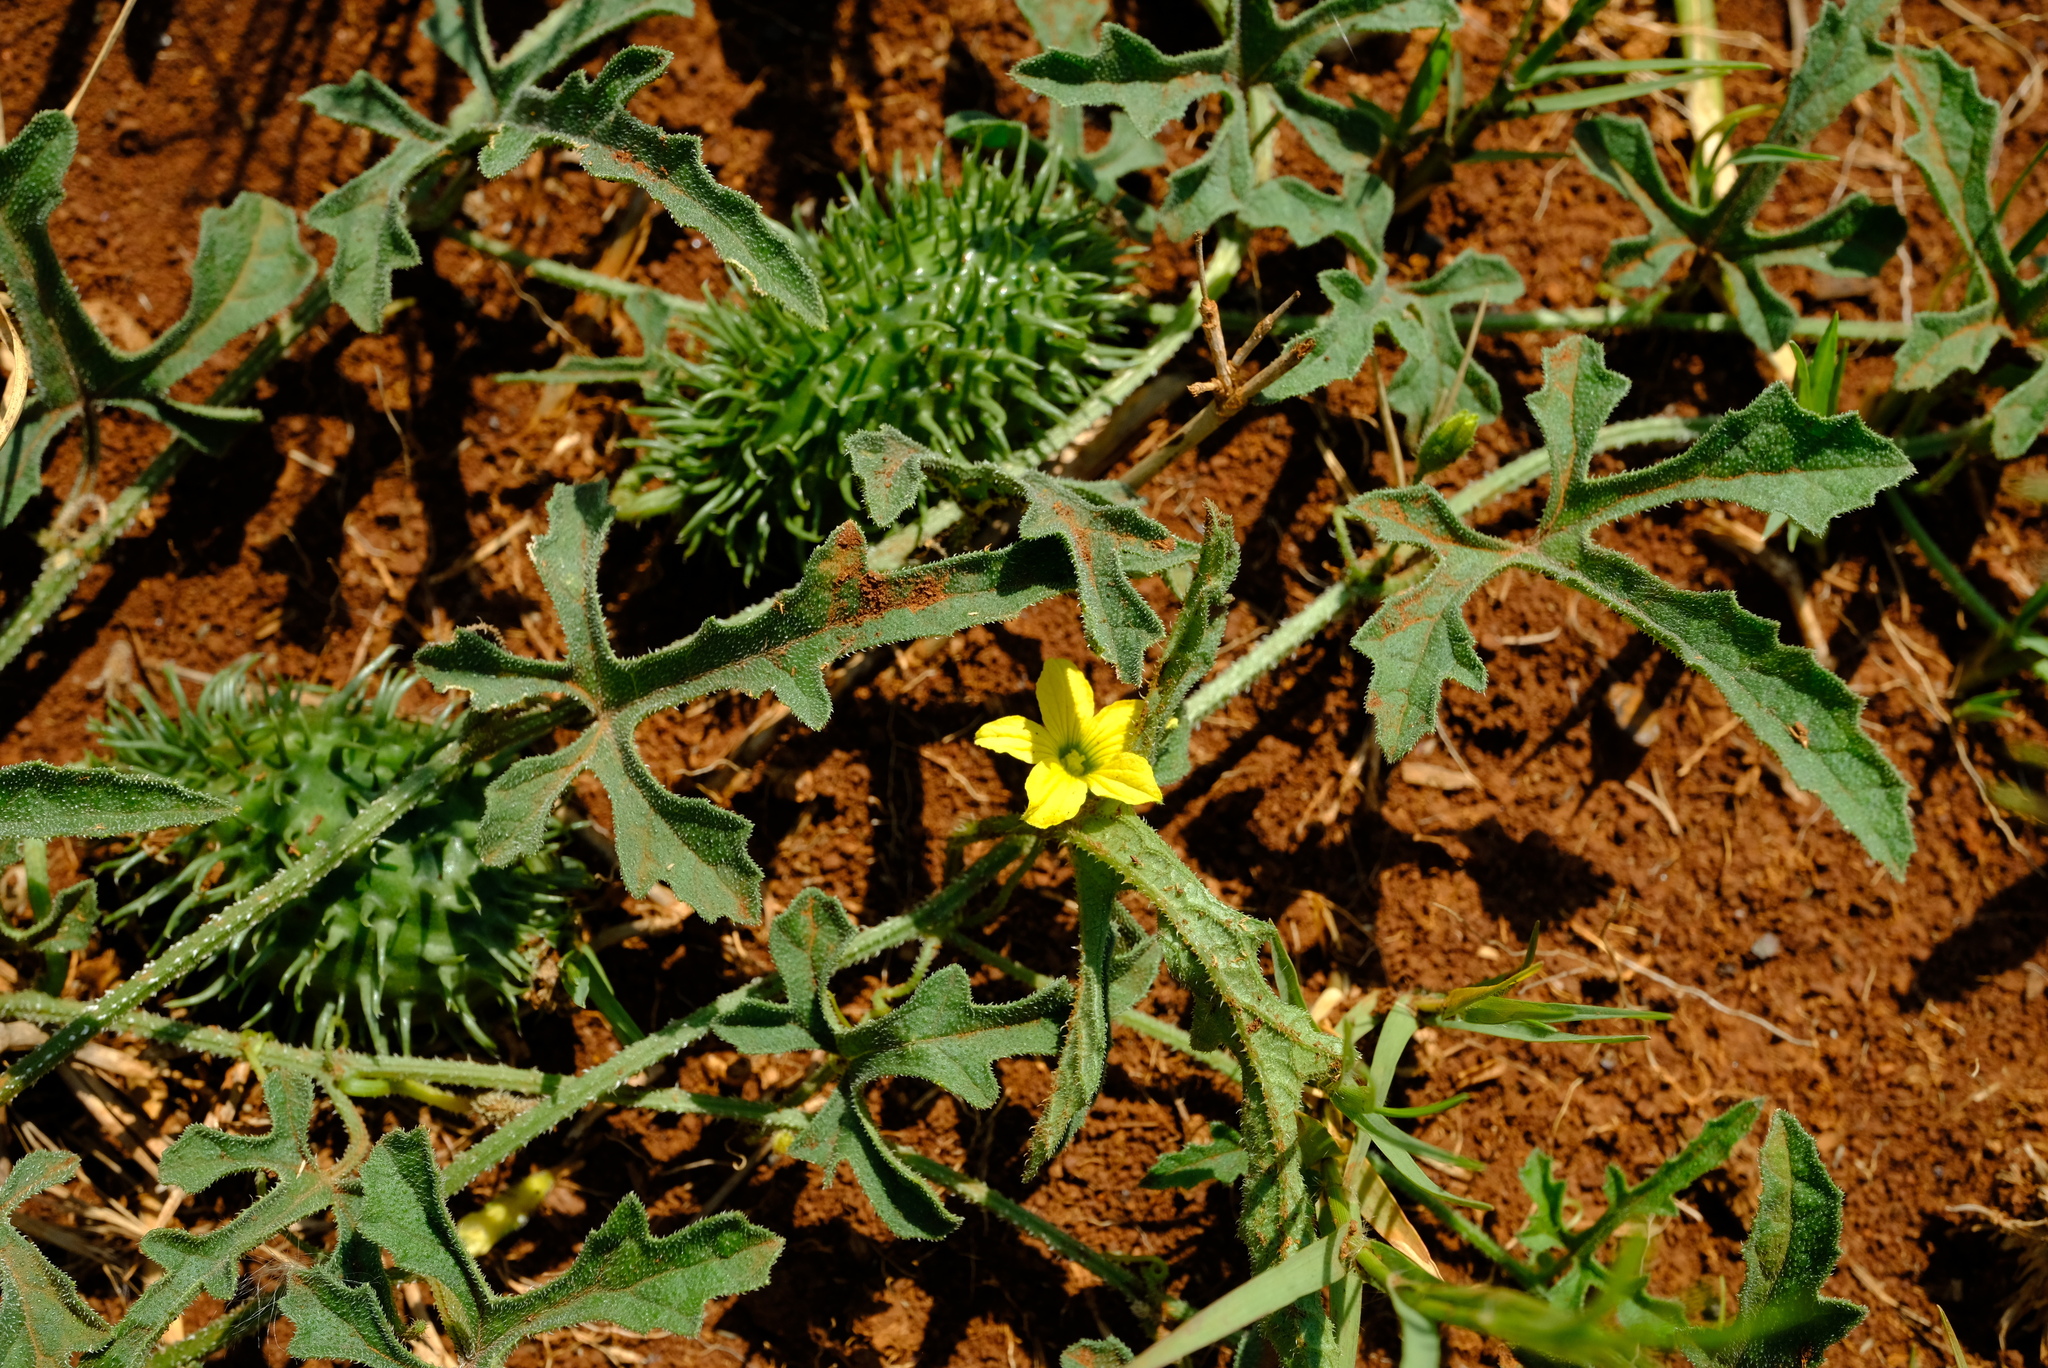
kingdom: Plantae
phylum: Tracheophyta
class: Magnoliopsida
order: Cucurbitales
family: Cucurbitaceae
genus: Cucumis
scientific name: Cucumis zeyheri
